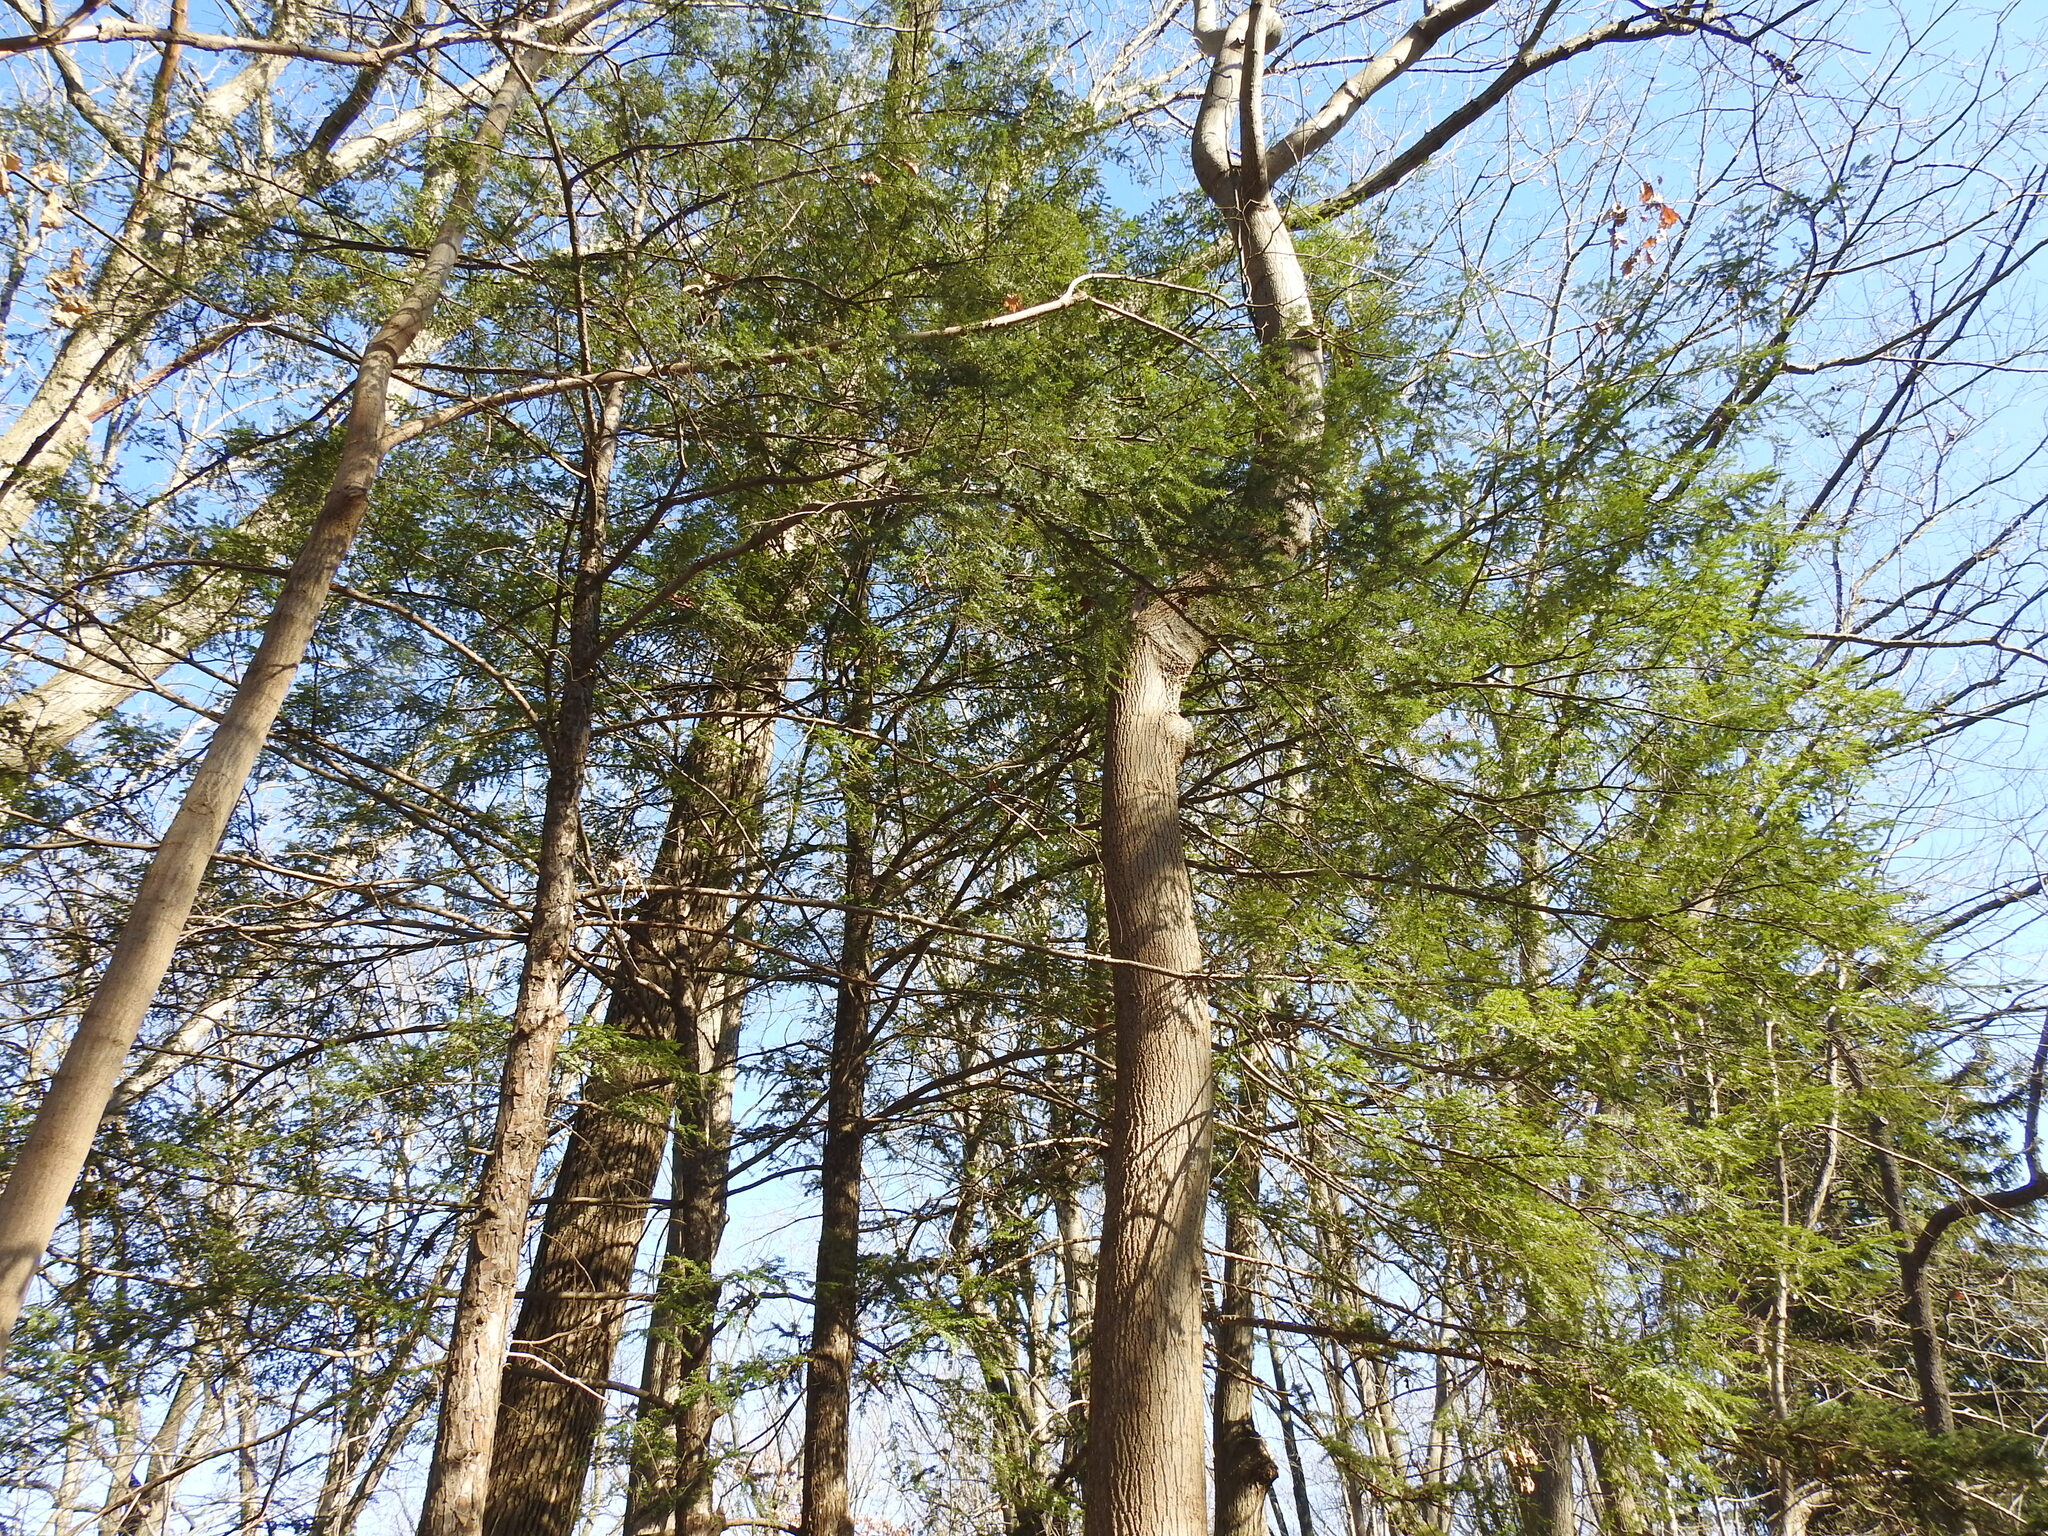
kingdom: Plantae
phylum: Tracheophyta
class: Pinopsida
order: Pinales
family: Pinaceae
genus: Tsuga
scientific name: Tsuga canadensis
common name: Eastern hemlock
